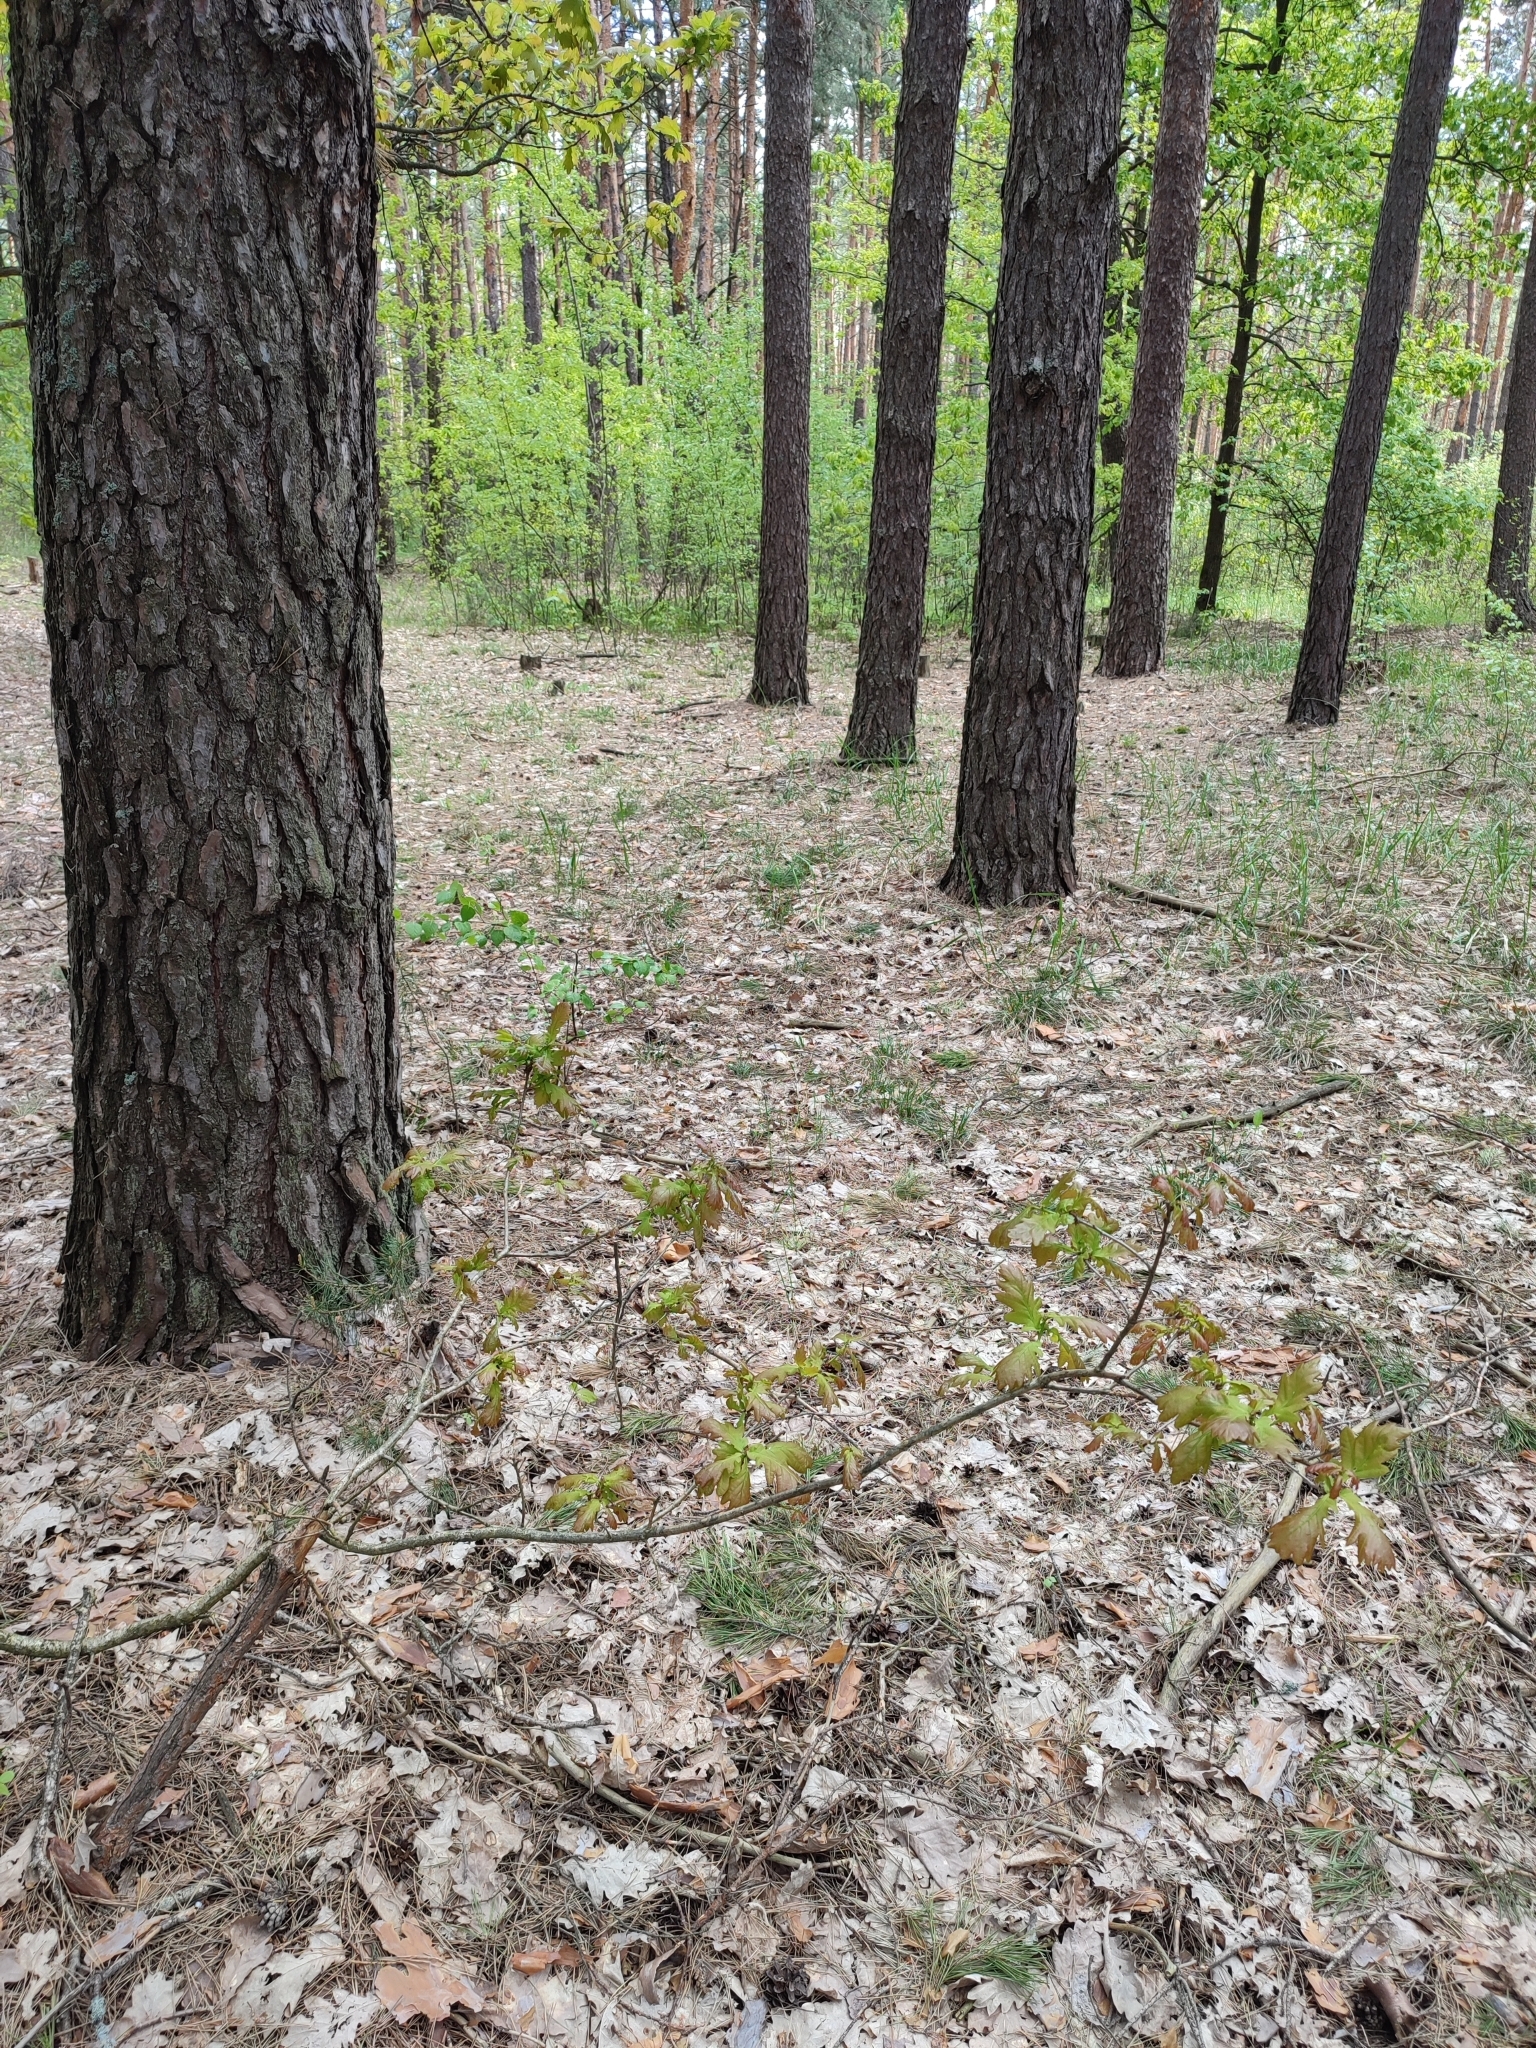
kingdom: Plantae
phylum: Tracheophyta
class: Magnoliopsida
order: Fagales
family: Fagaceae
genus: Quercus
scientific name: Quercus robur
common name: Pedunculate oak
